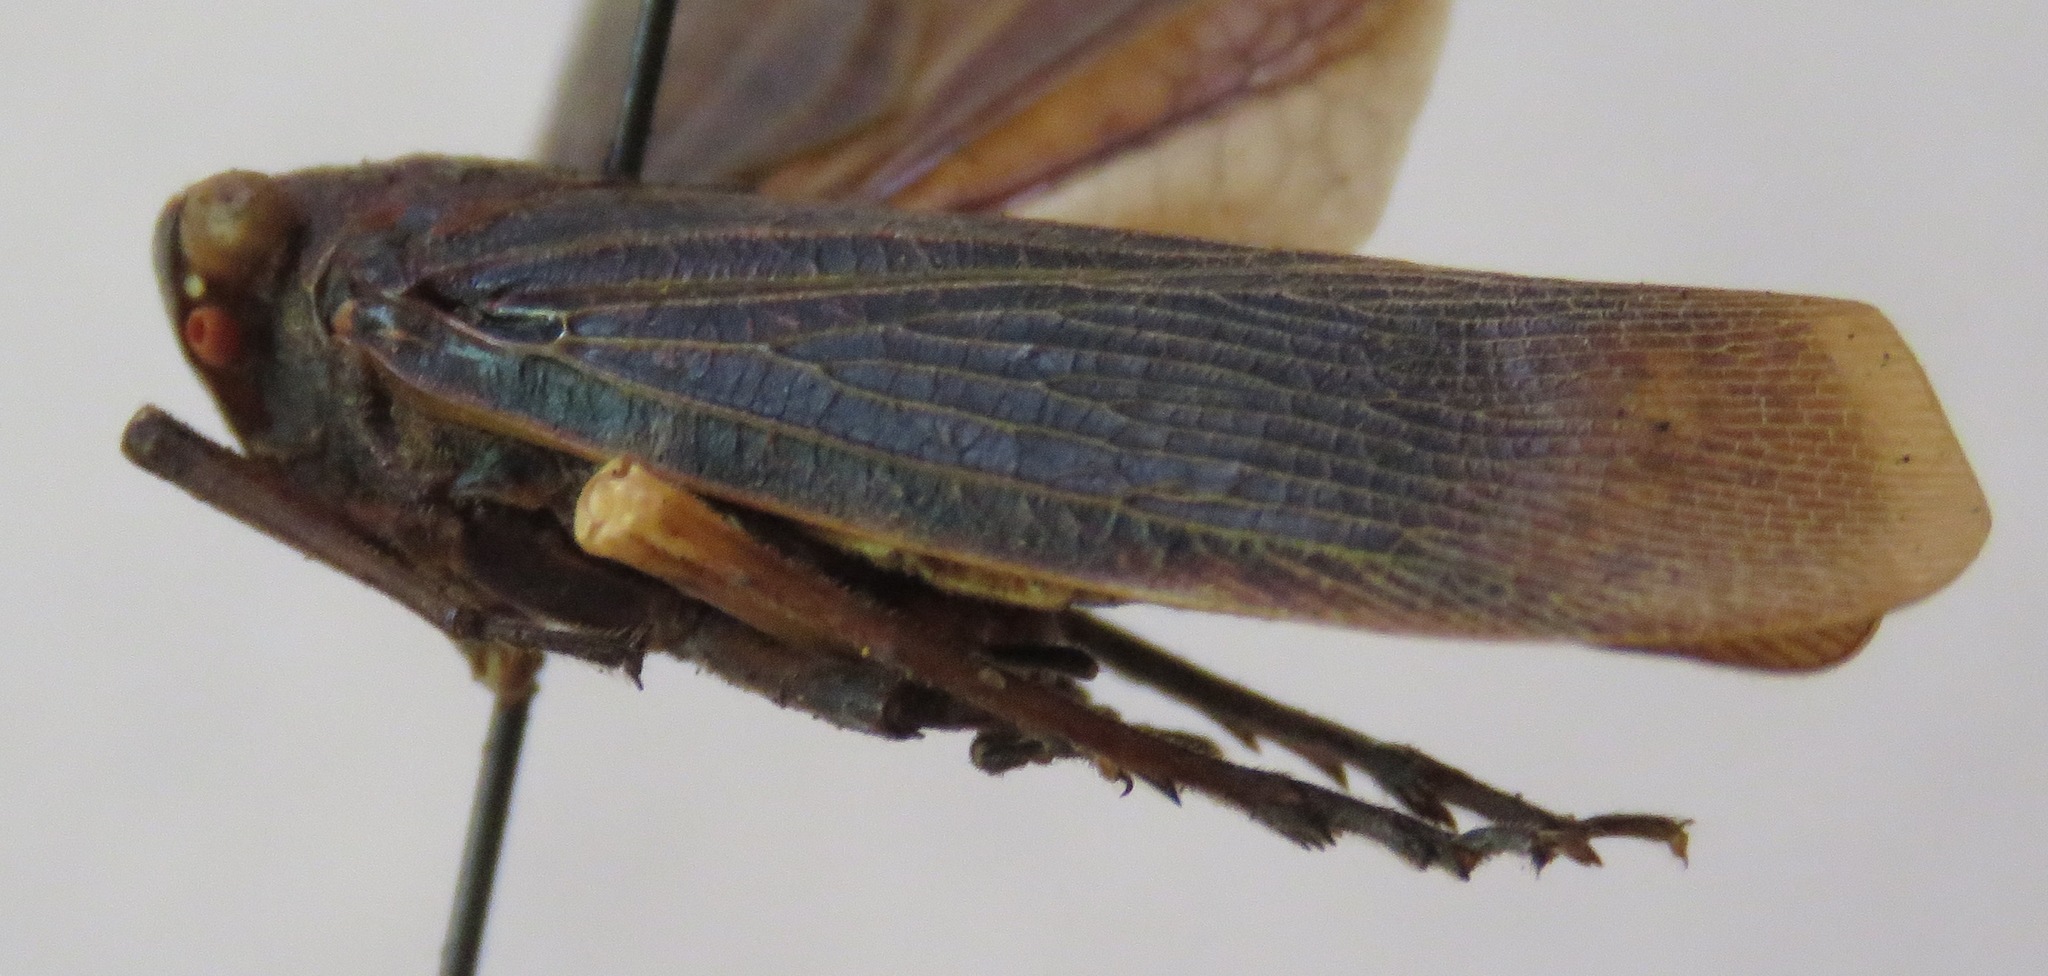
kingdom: Animalia
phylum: Arthropoda
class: Insecta
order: Hemiptera
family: Fulgoridae
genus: Acraephia
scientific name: Acraephia perspicillata
